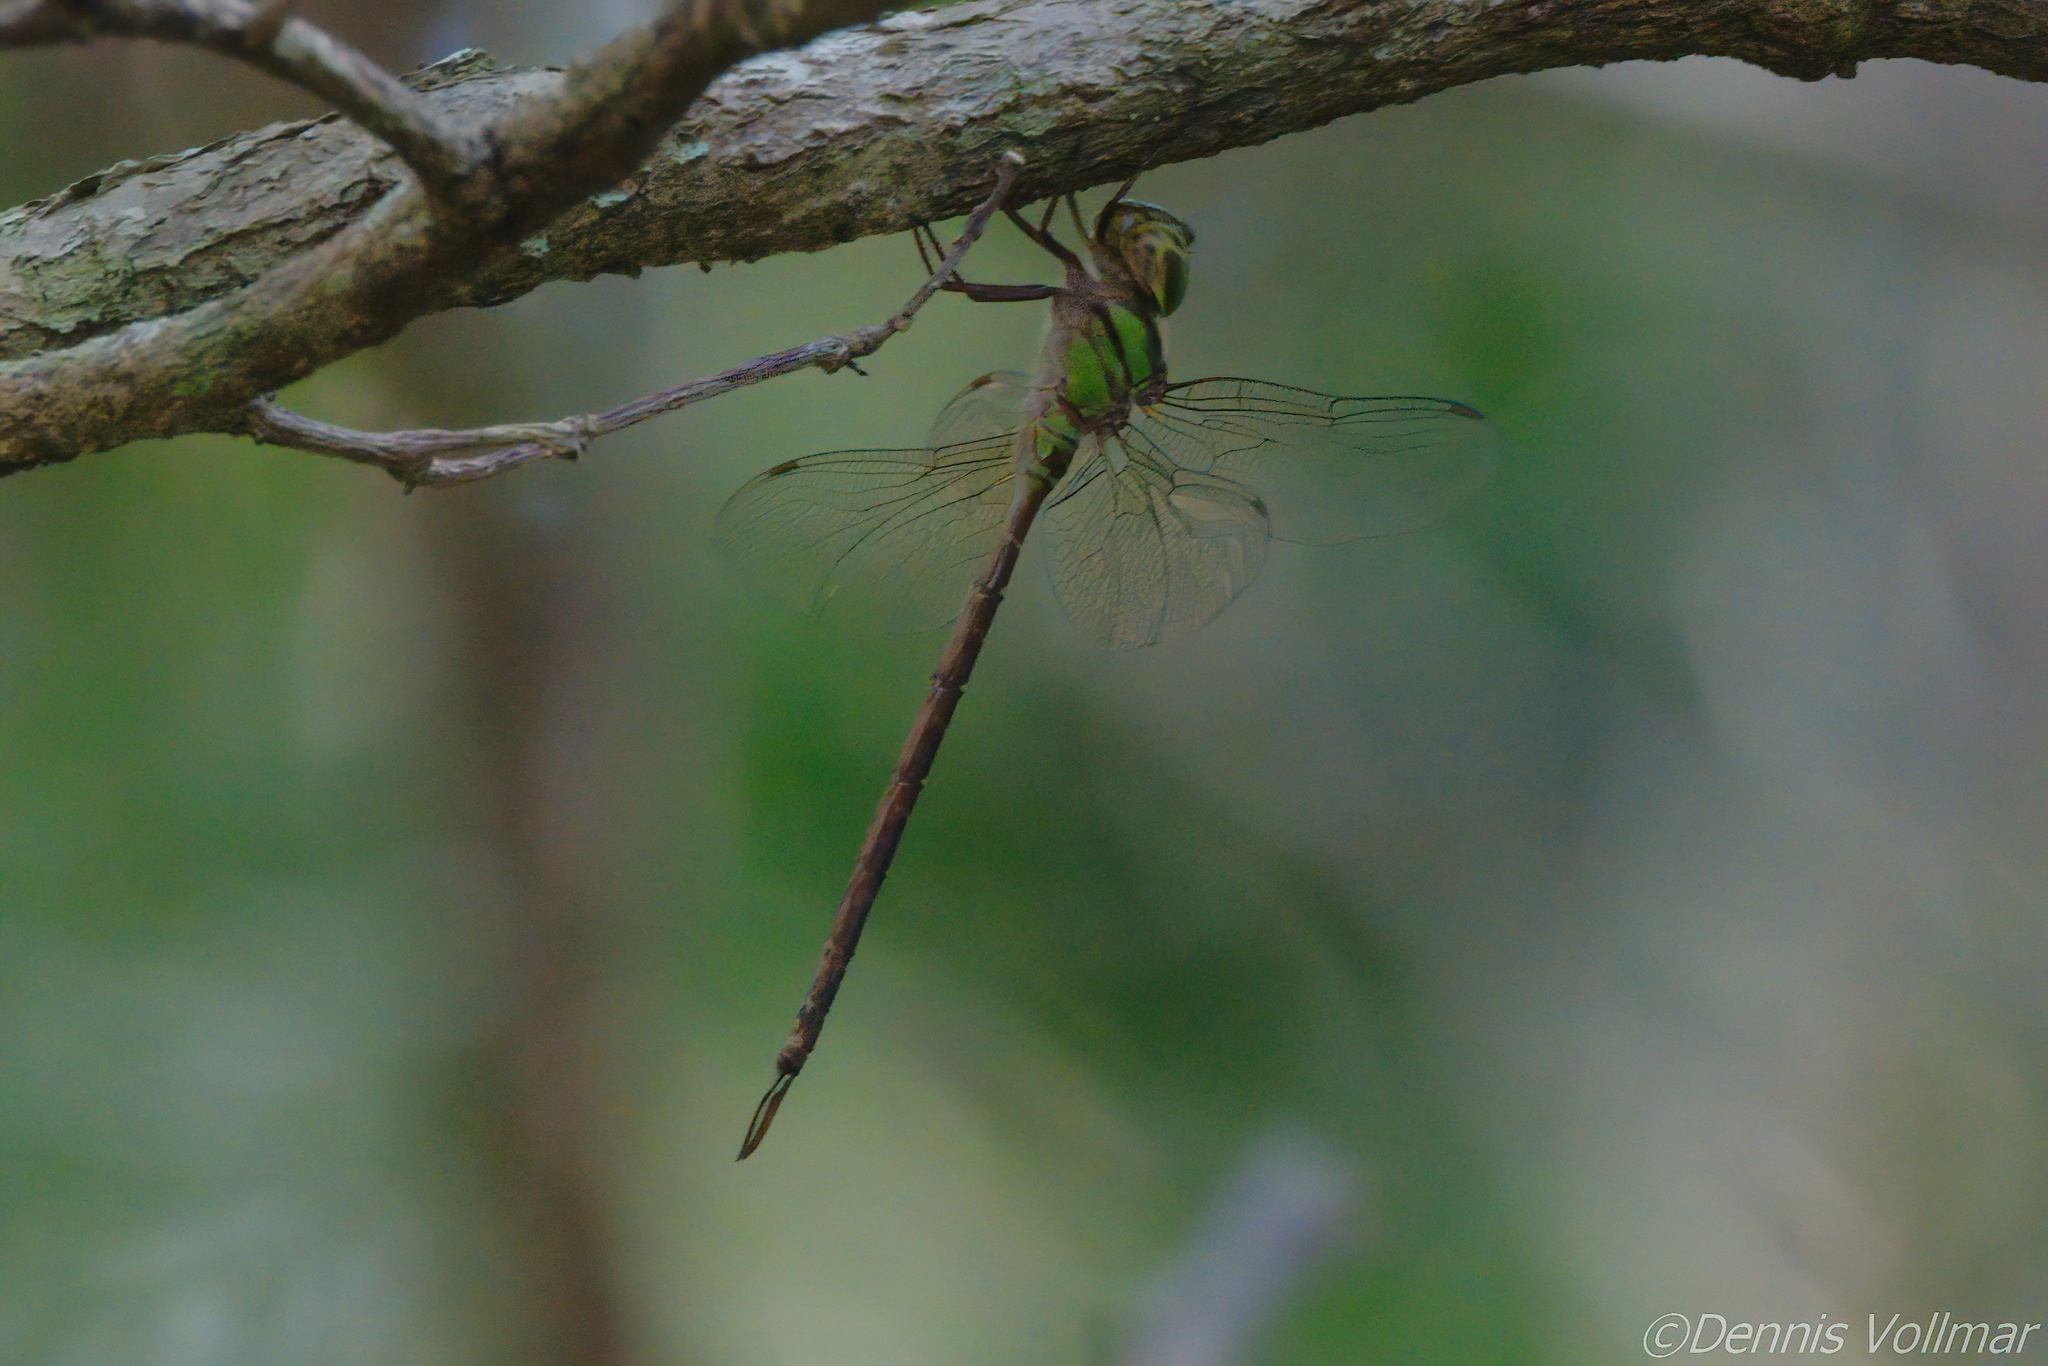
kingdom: Animalia
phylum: Arthropoda
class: Insecta
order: Odonata
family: Aeshnidae
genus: Triacanthagyna
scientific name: Triacanthagyna trifida
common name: Phantom darner
